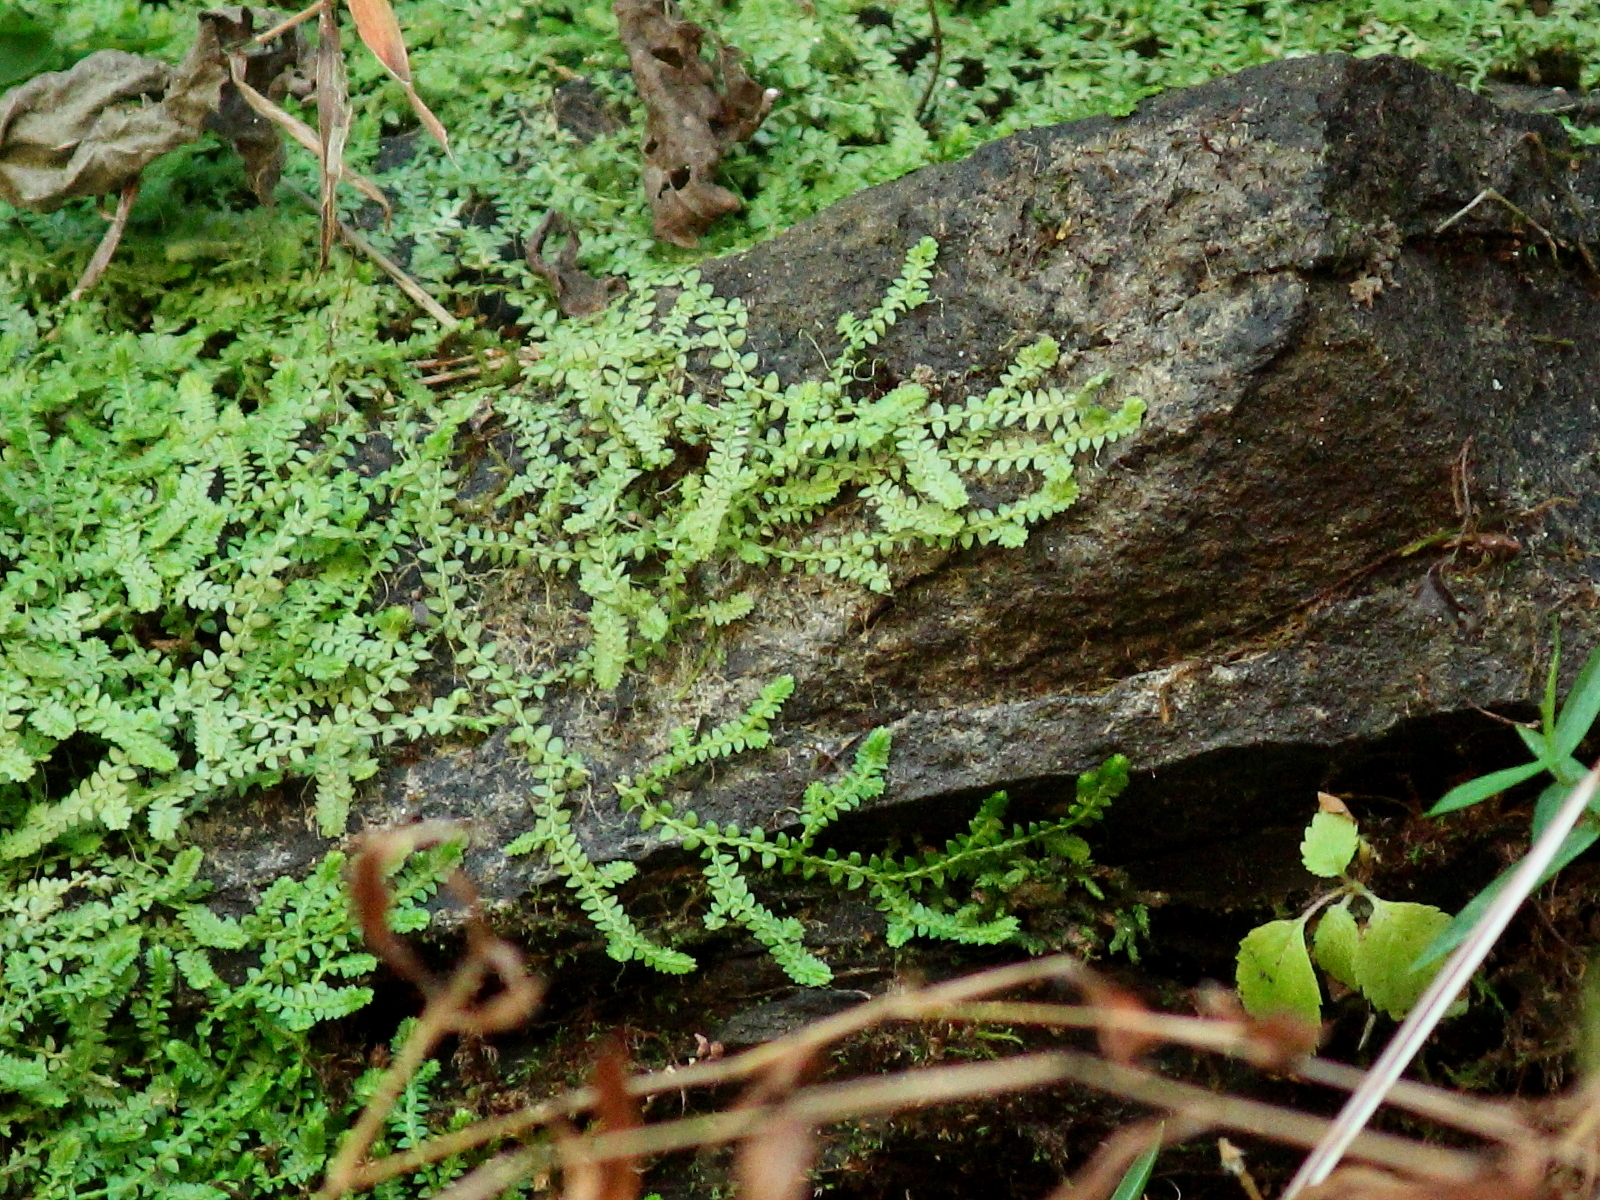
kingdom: Plantae
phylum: Tracheophyta
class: Lycopodiopsida
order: Selaginellales
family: Selaginellaceae
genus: Selaginella
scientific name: Selaginella eclipes
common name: Buck's meadow spikemoss
